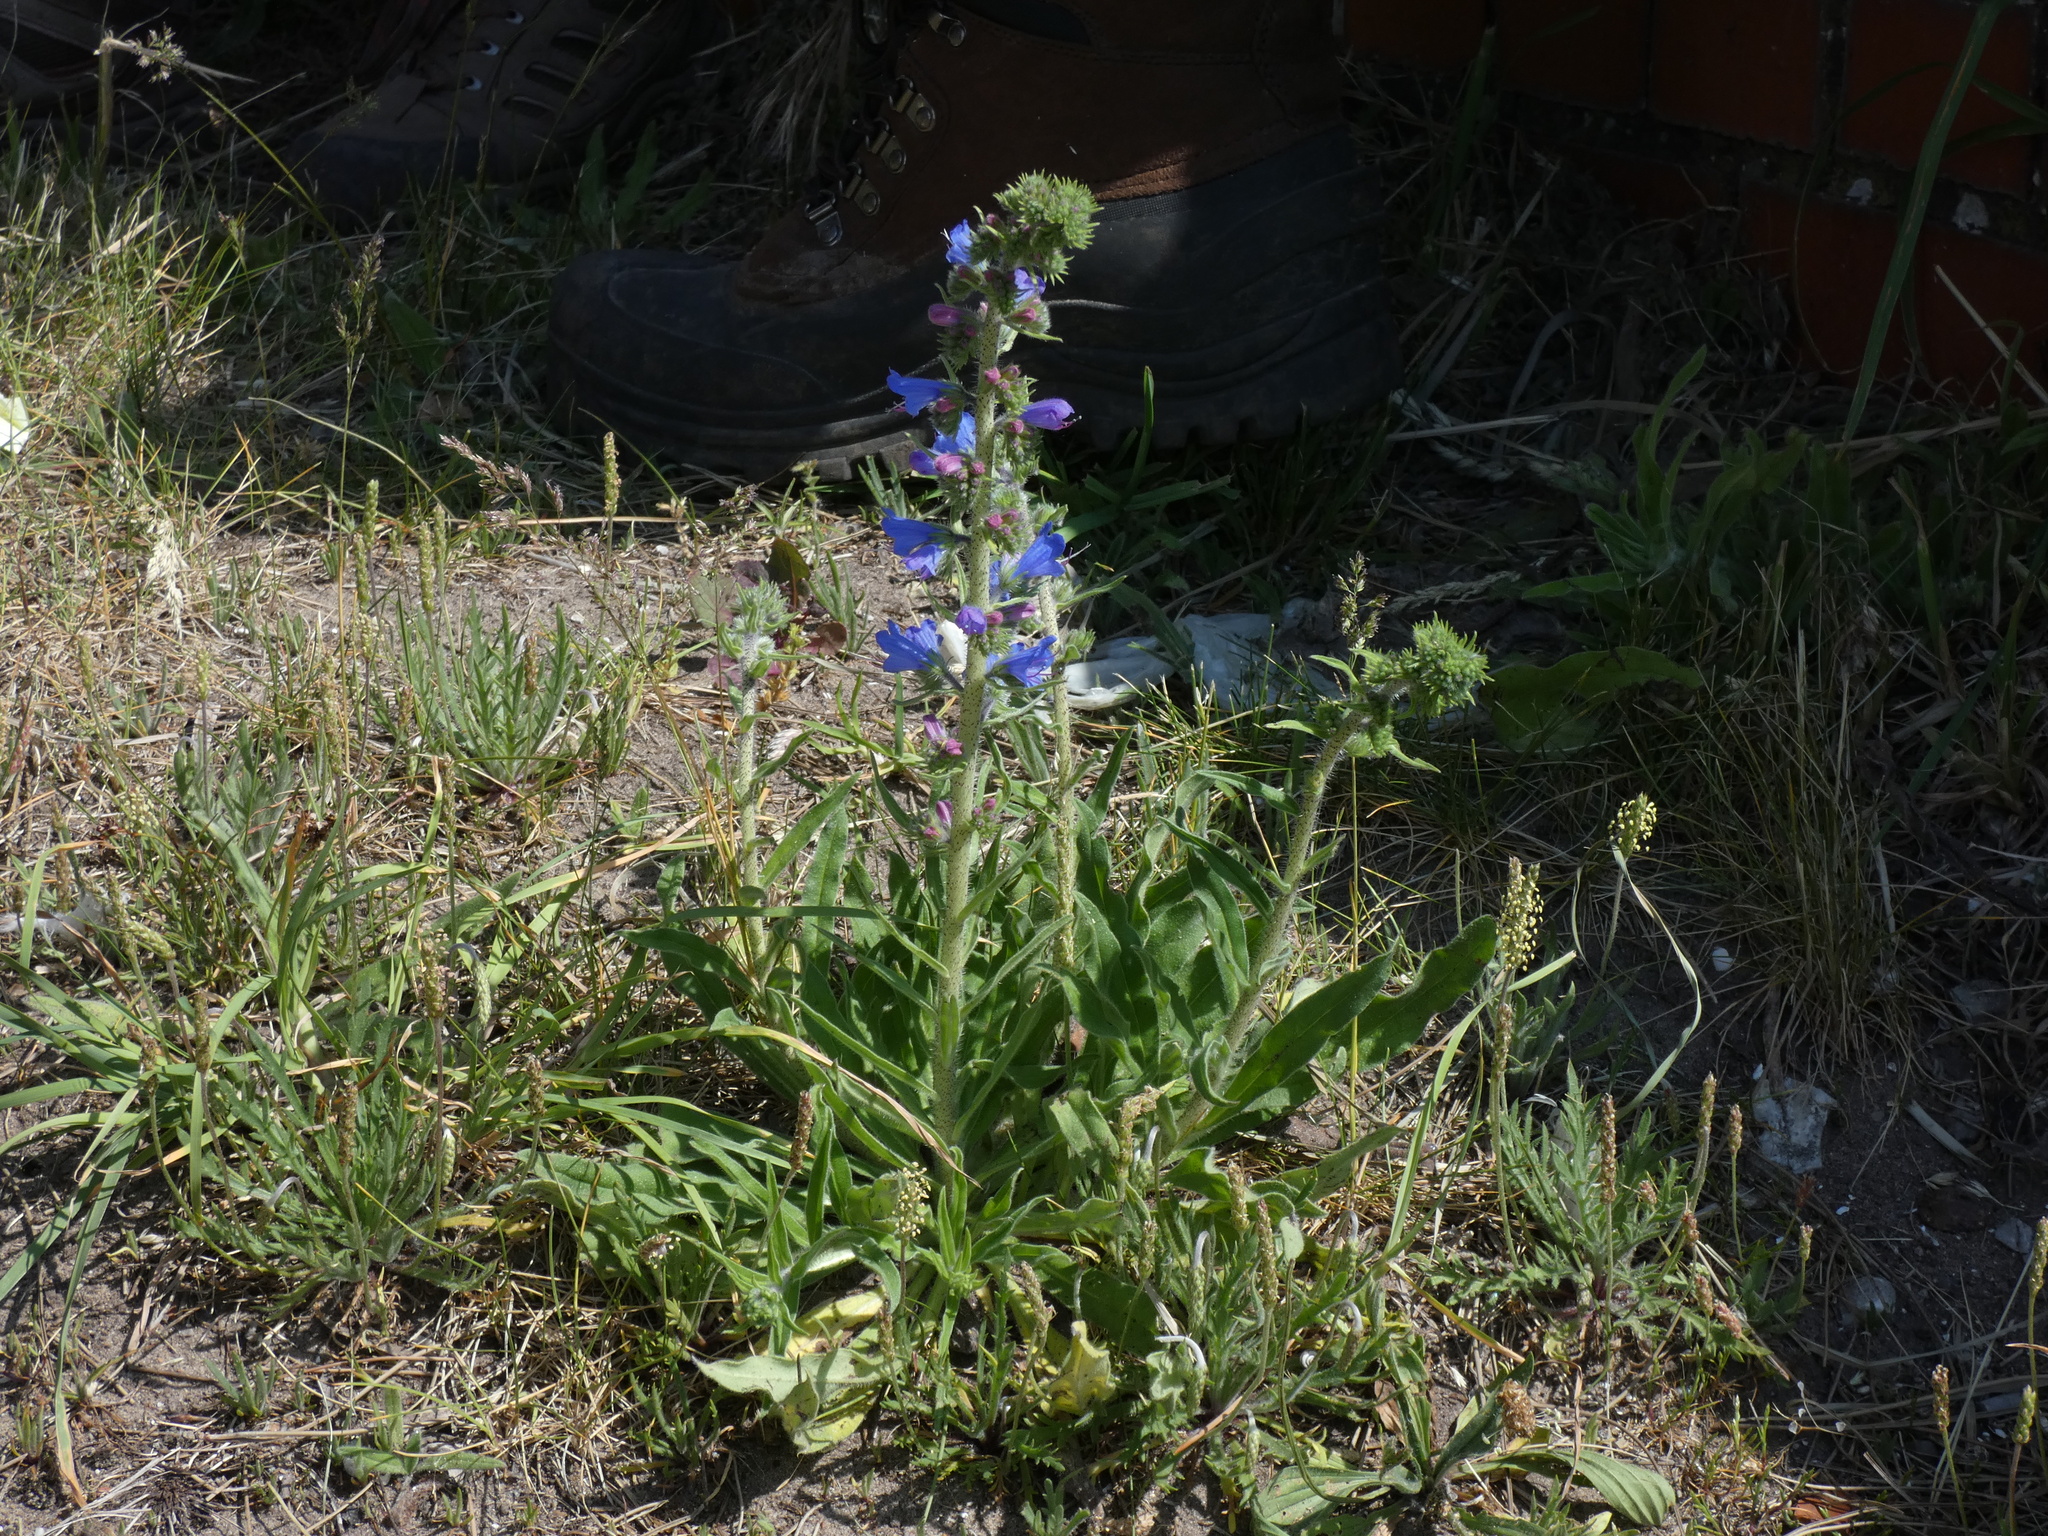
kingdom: Plantae
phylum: Tracheophyta
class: Magnoliopsida
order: Boraginales
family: Boraginaceae
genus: Echium
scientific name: Echium vulgare
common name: Common viper's bugloss
